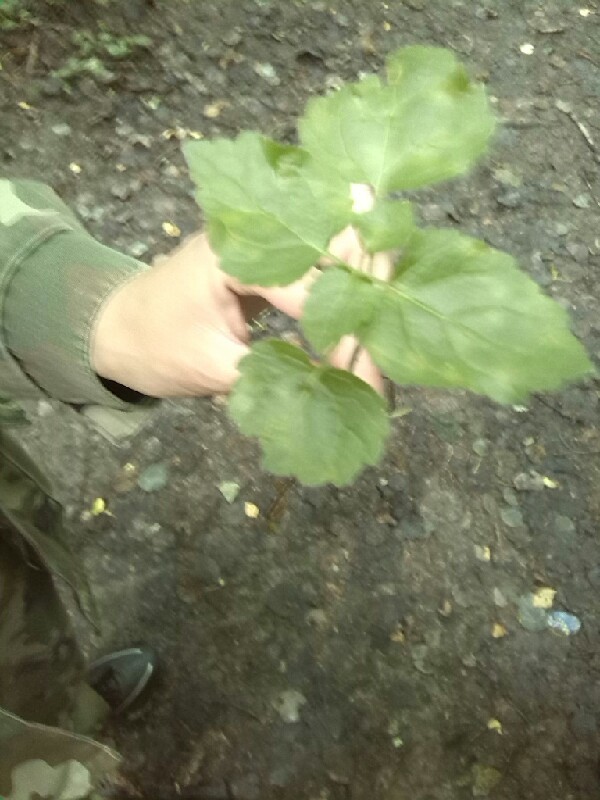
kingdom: Plantae
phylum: Tracheophyta
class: Magnoliopsida
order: Lamiales
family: Lamiaceae
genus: Lamium
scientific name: Lamium galeobdolon
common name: Yellow archangel
